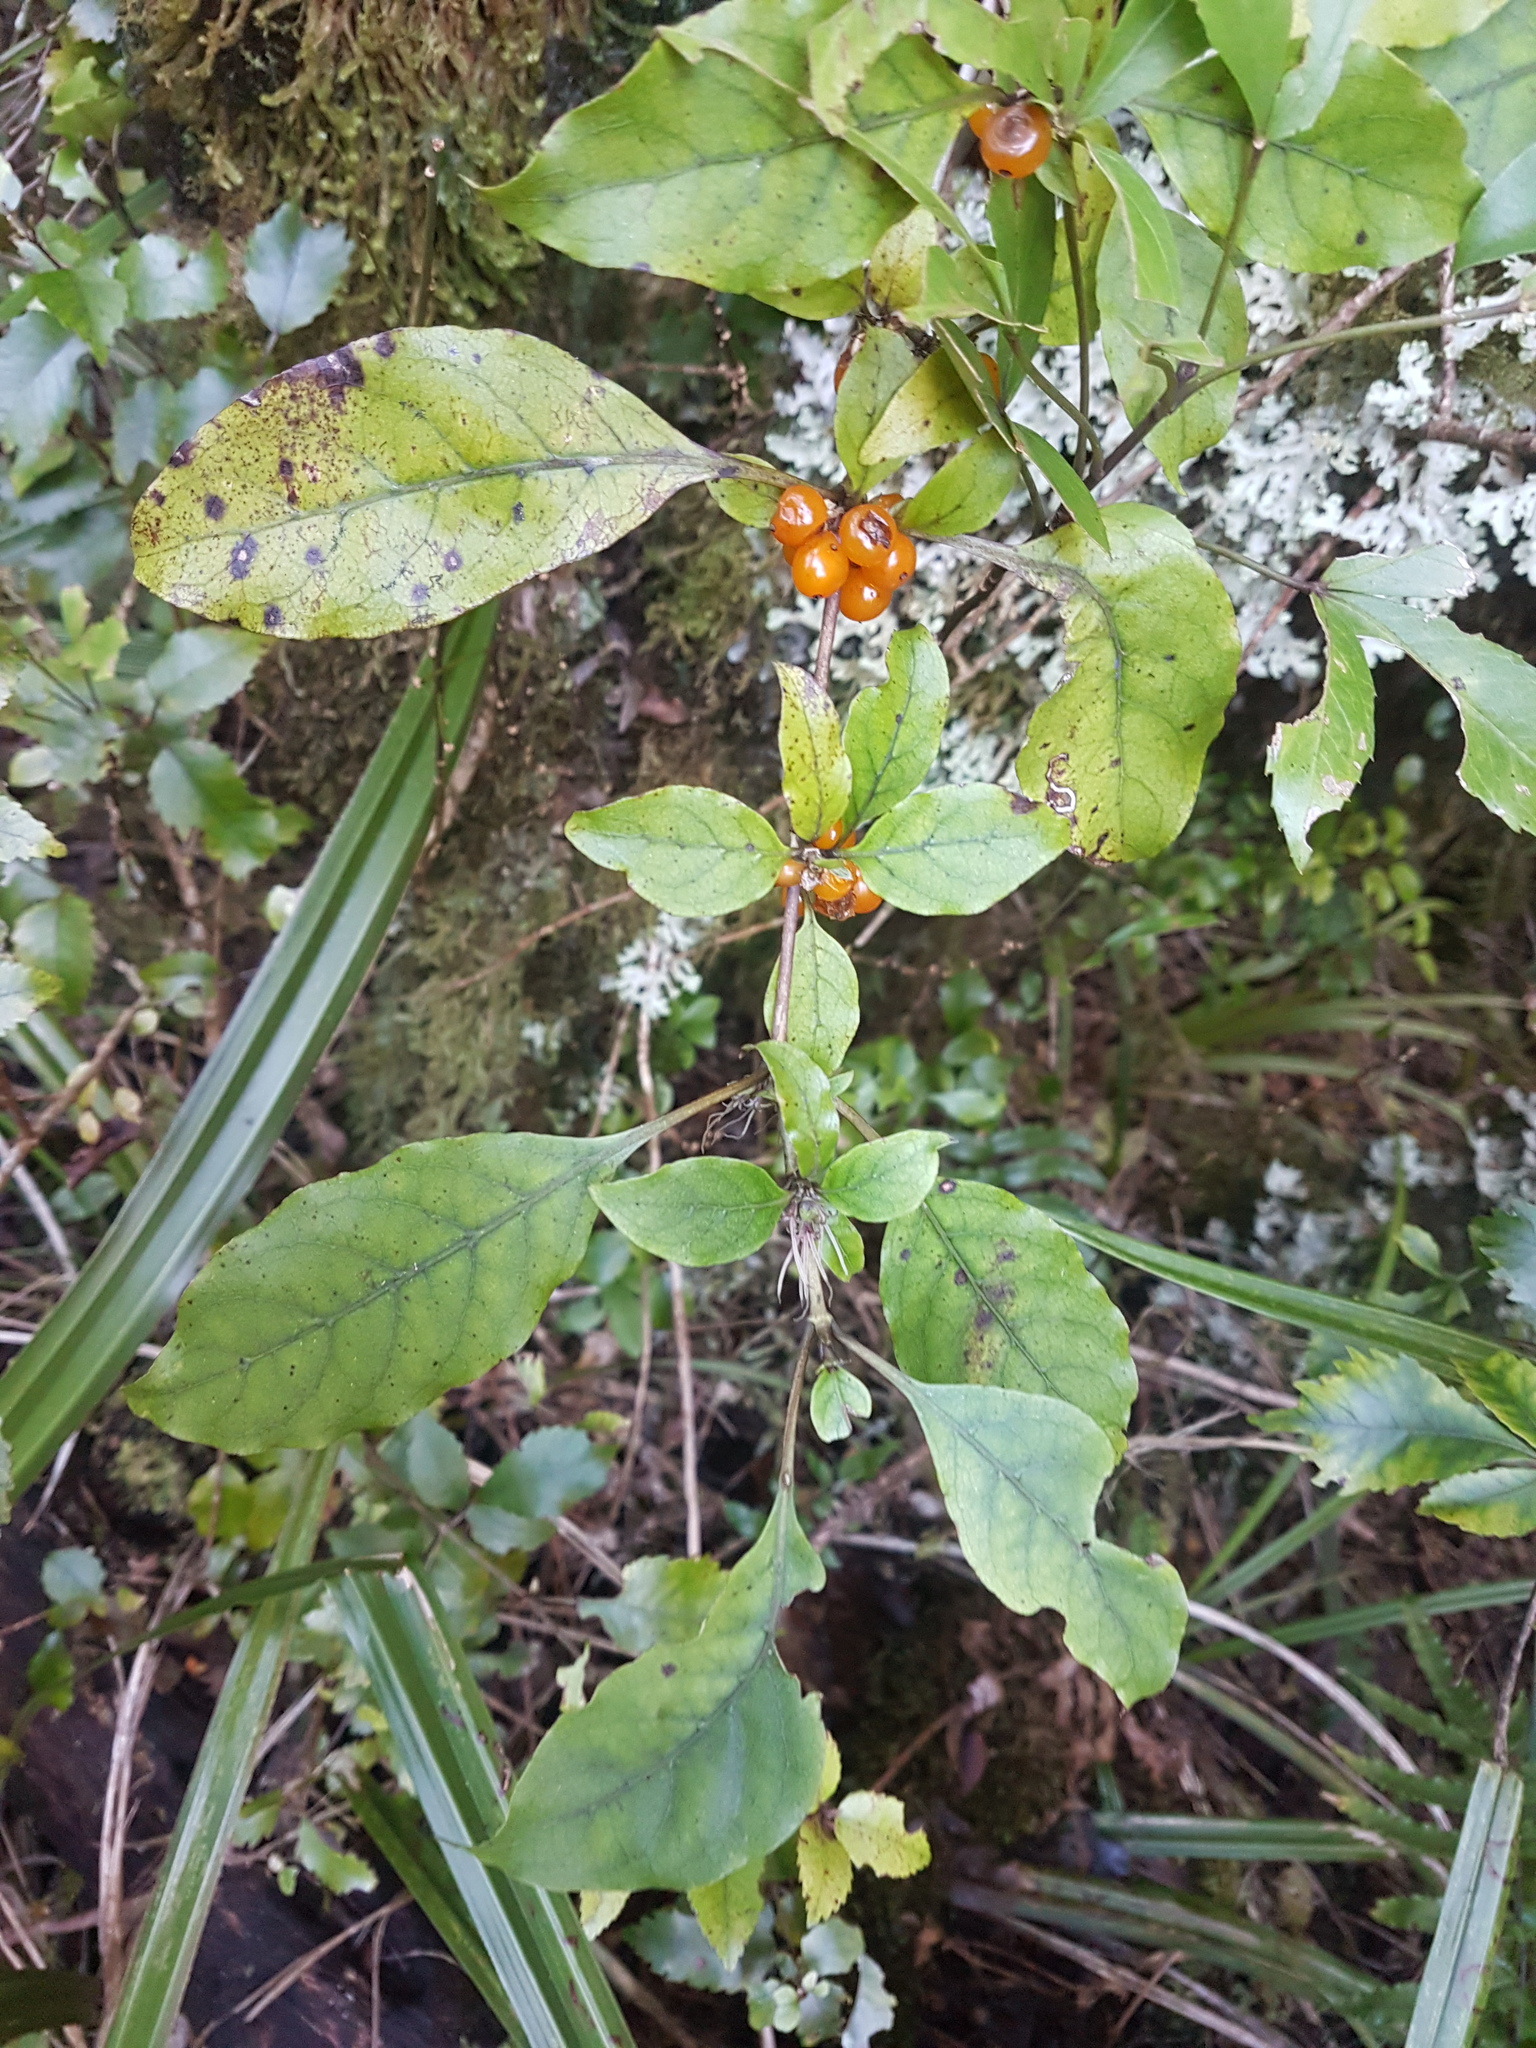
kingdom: Plantae
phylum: Tracheophyta
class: Magnoliopsida
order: Gentianales
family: Rubiaceae
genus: Coprosma
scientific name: Coprosma autumnalis
